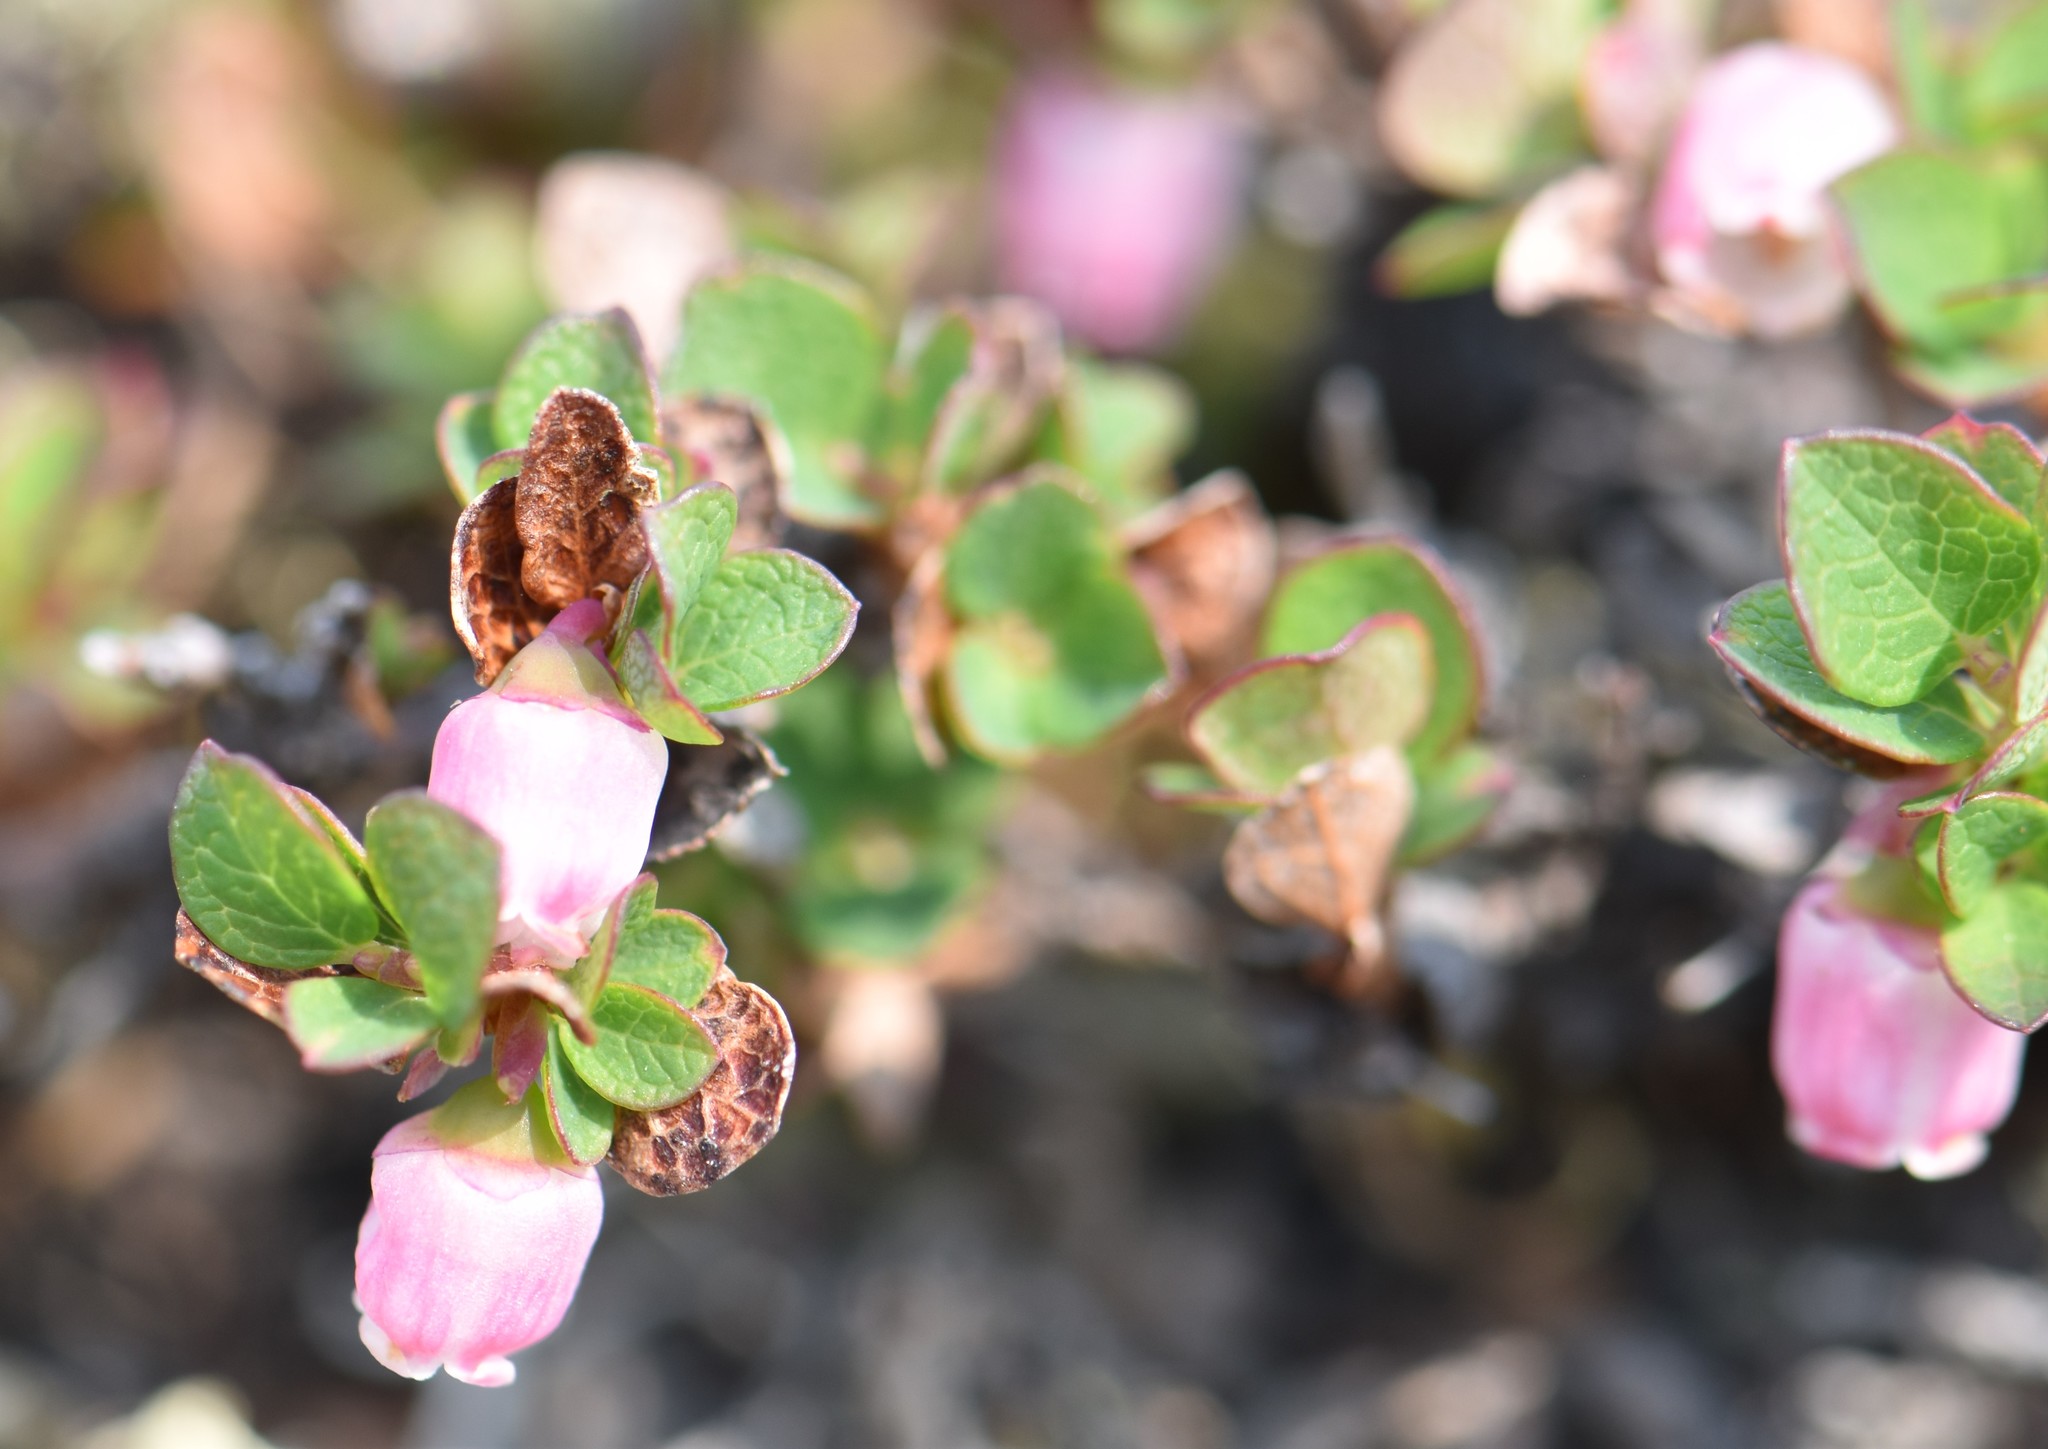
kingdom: Plantae
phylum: Tracheophyta
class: Magnoliopsida
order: Ericales
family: Ericaceae
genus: Vaccinium
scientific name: Vaccinium uliginosum
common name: Bog bilberry
